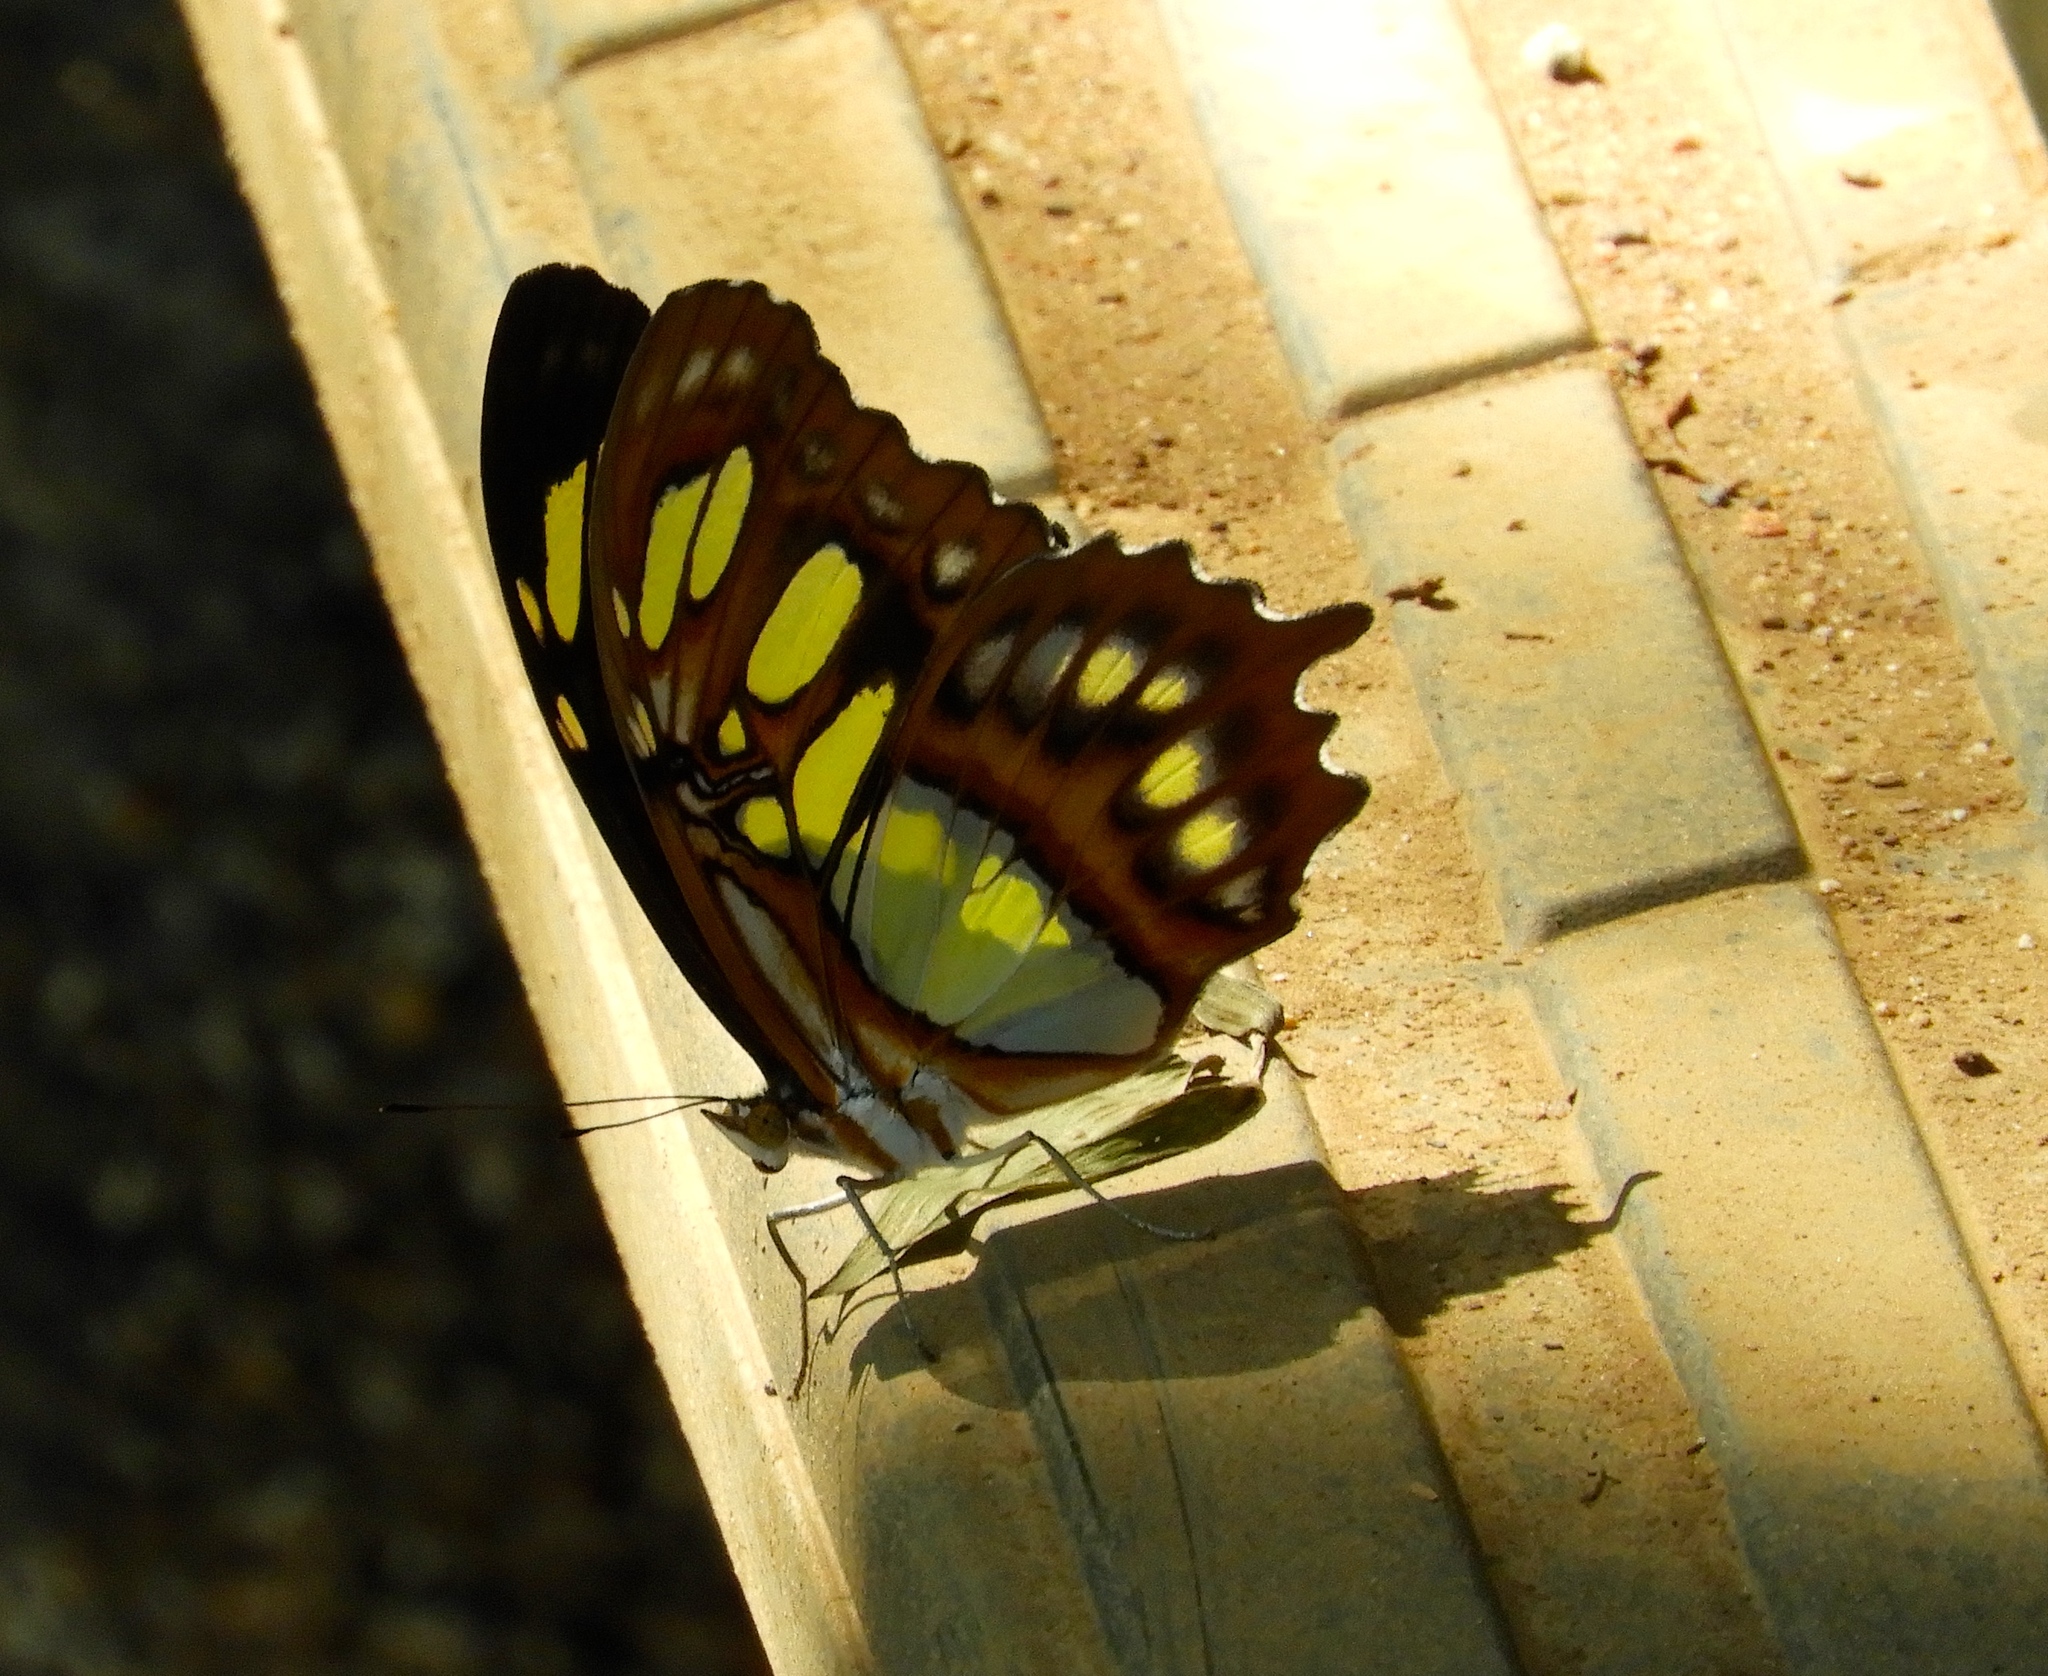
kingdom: Animalia
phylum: Arthropoda
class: Insecta
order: Lepidoptera
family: Nymphalidae
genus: Siproeta
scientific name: Siproeta stelenes
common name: Malachite
